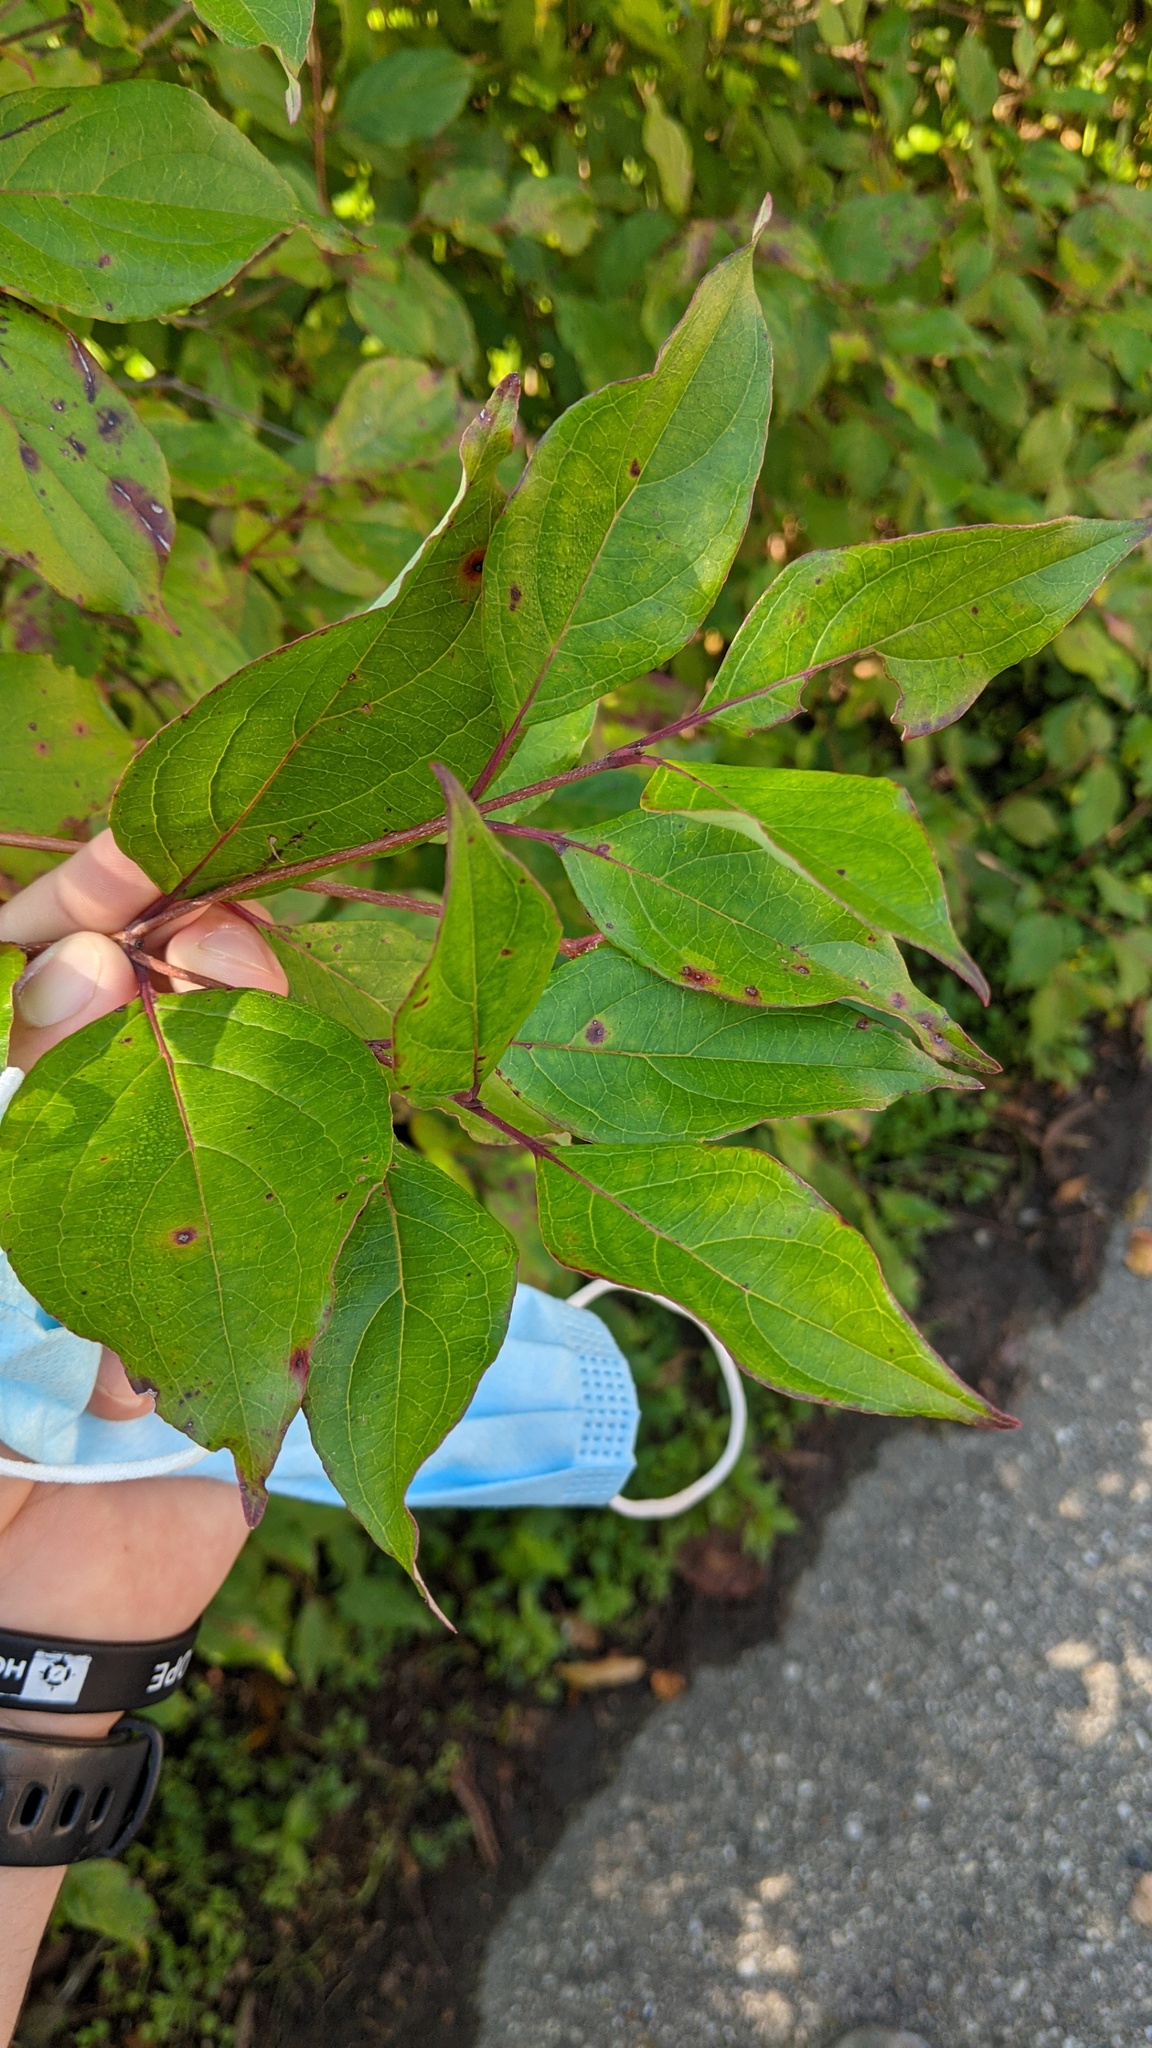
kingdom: Plantae
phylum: Tracheophyta
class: Magnoliopsida
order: Cornales
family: Cornaceae
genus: Cornus
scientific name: Cornus racemosa
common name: Panicled dogwood
